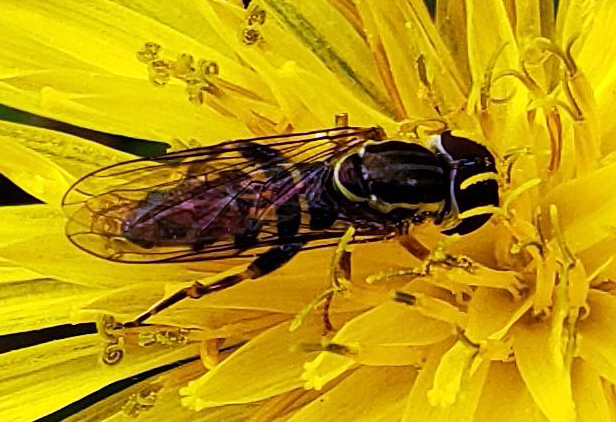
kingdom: Animalia
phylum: Arthropoda
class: Insecta
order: Diptera
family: Syrphidae
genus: Toxomerus
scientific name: Toxomerus geminatus
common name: Eastern calligrapher
